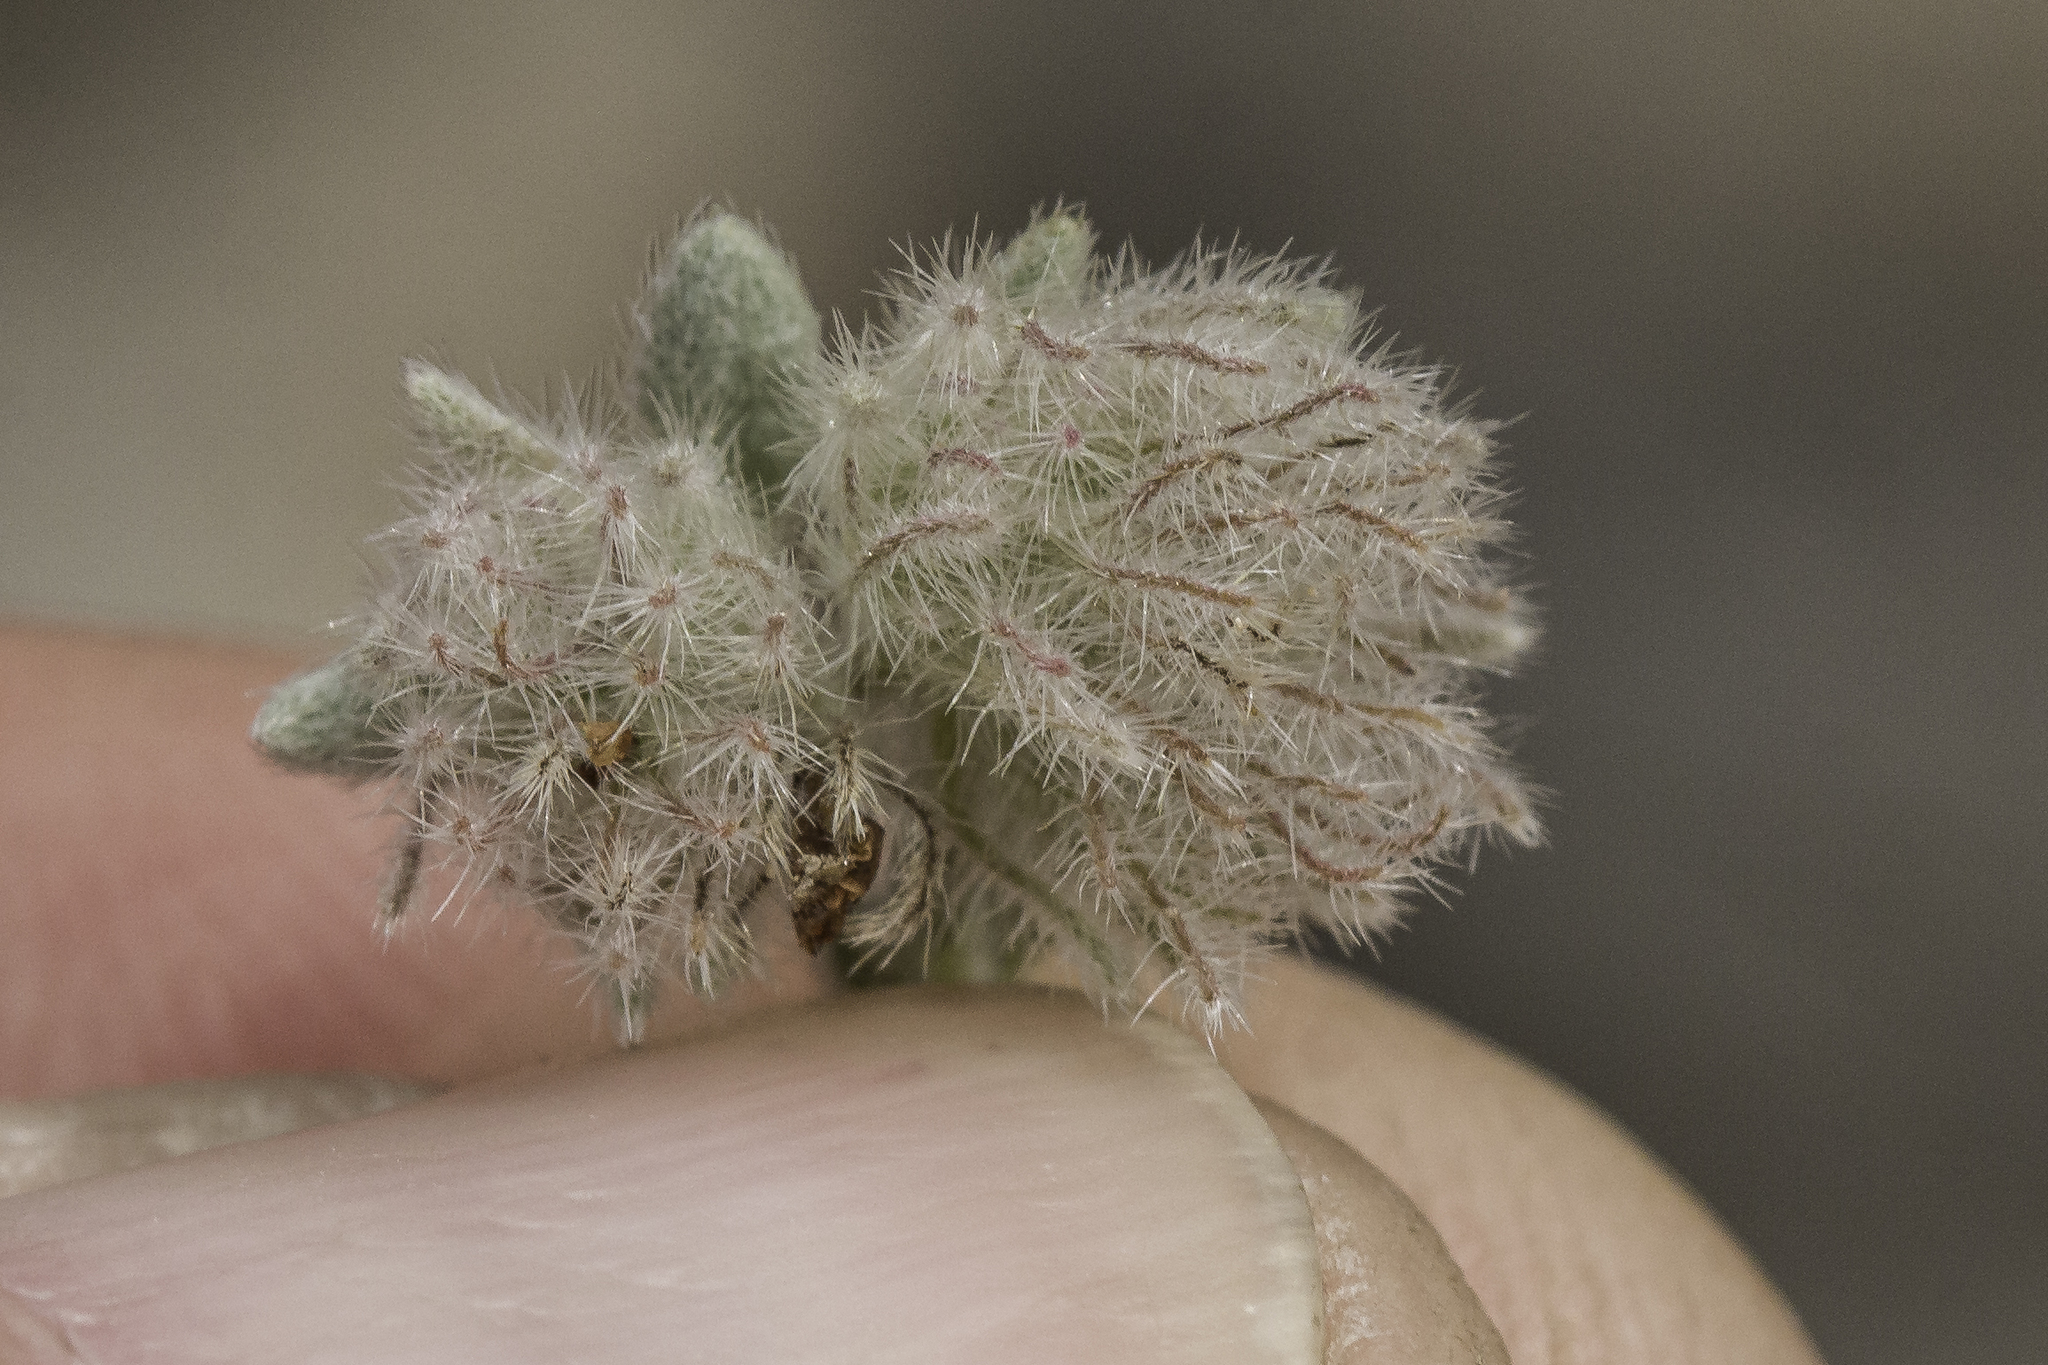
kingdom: Plantae
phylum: Tracheophyta
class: Magnoliopsida
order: Boraginales
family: Ehretiaceae
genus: Tiquilia
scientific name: Tiquilia greggii
